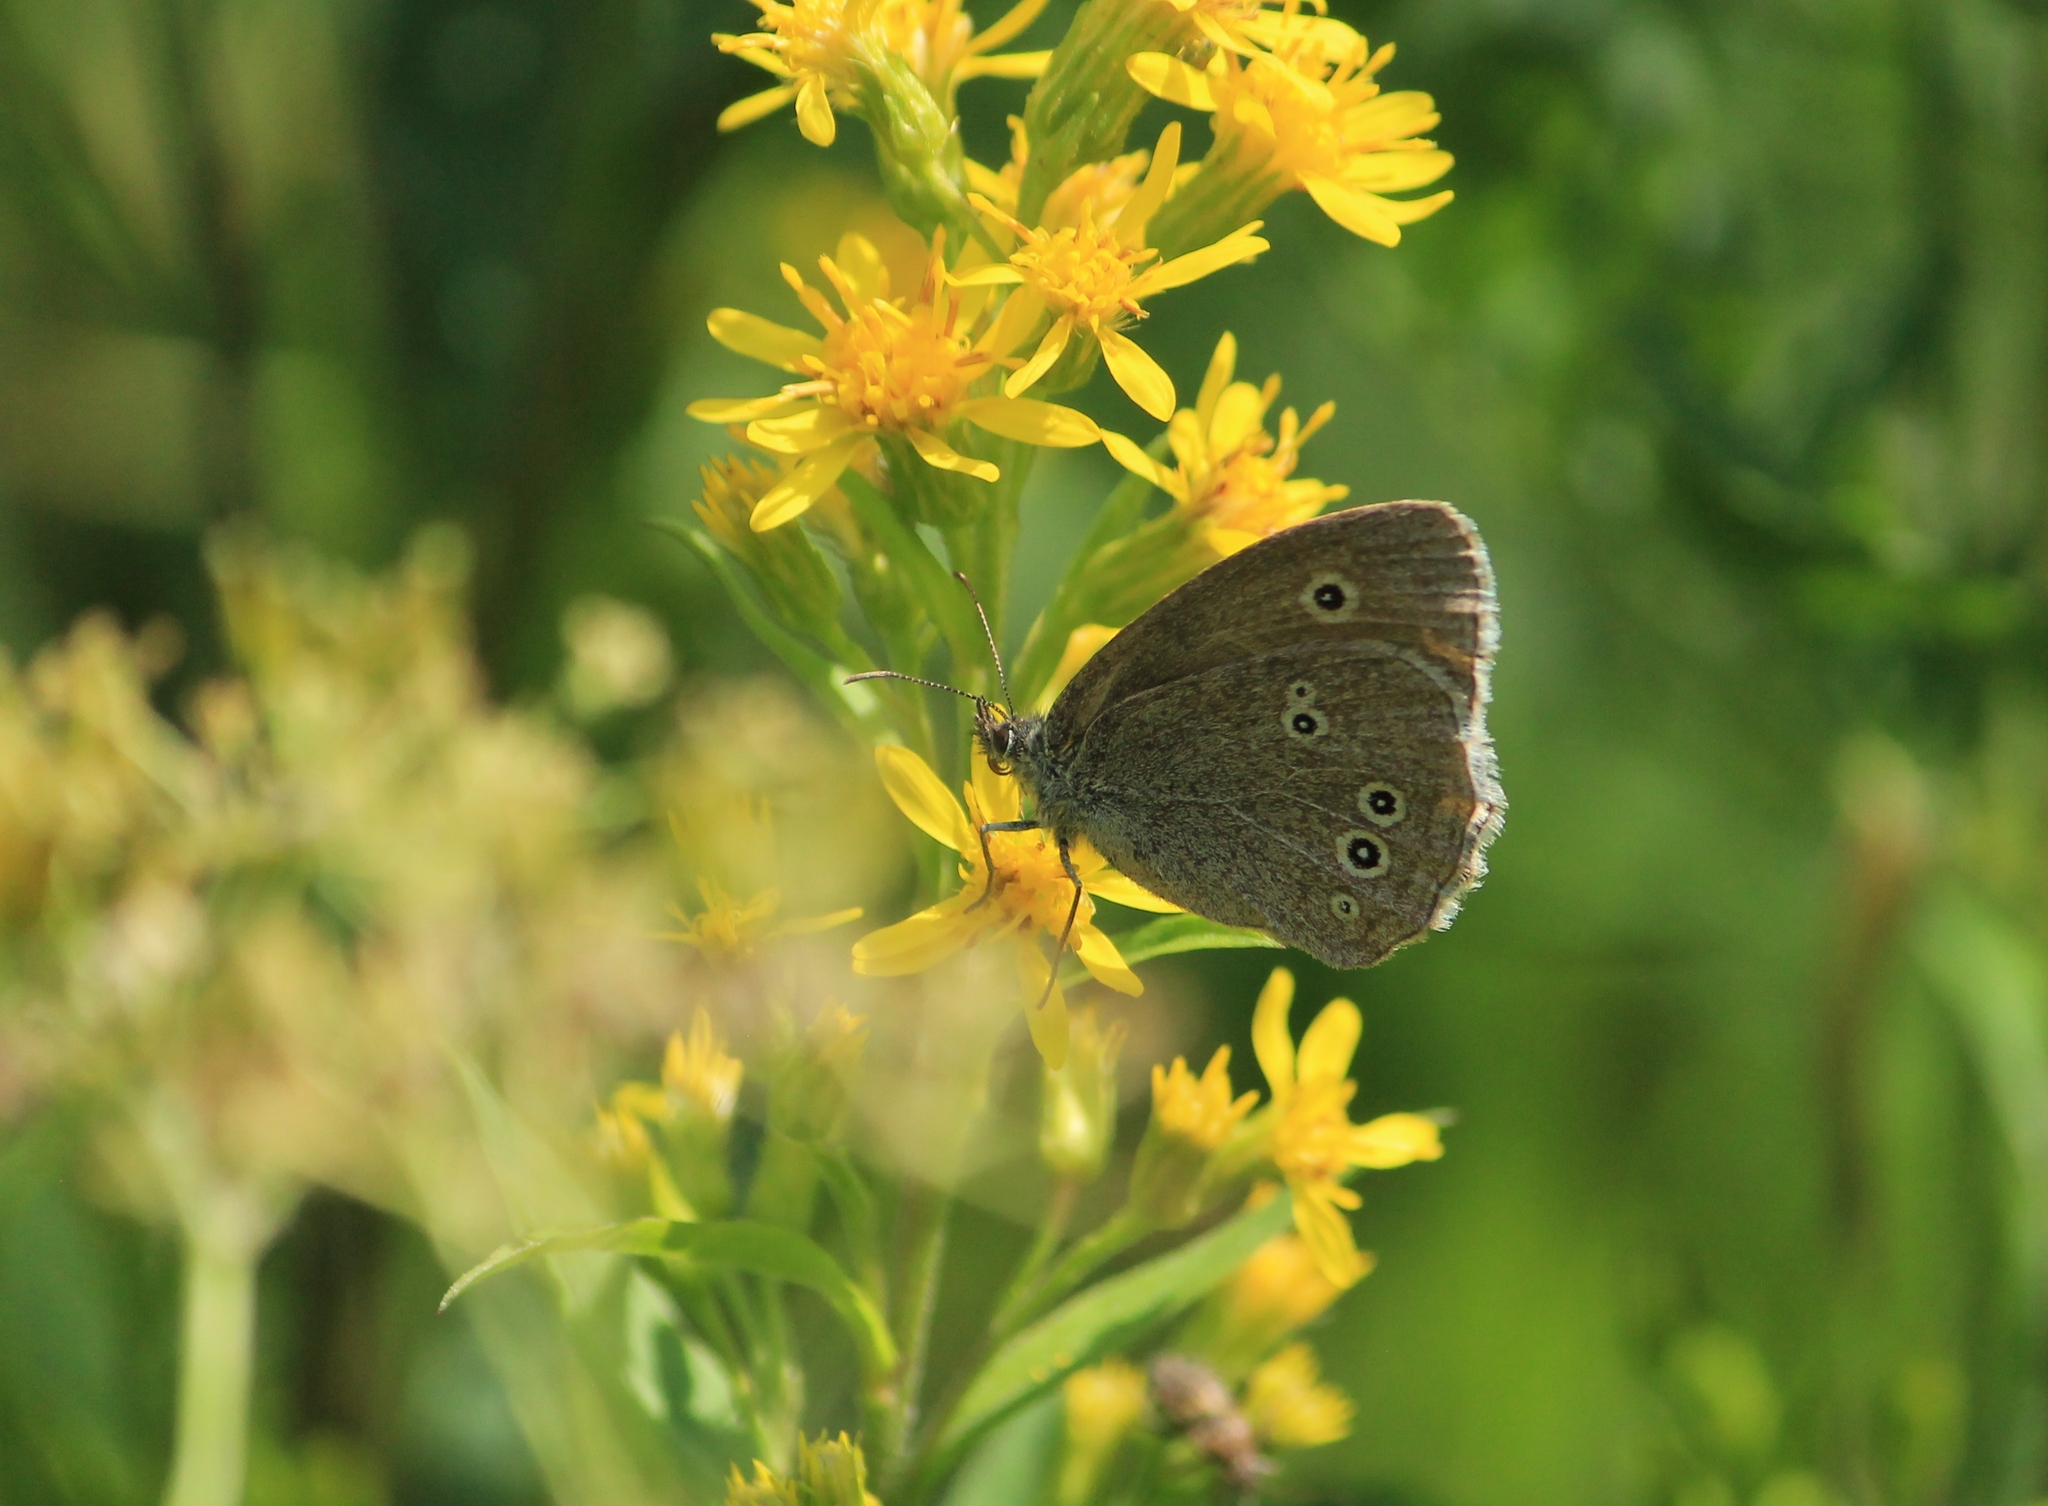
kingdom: Animalia
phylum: Arthropoda
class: Insecta
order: Lepidoptera
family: Nymphalidae
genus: Aphantopus
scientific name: Aphantopus hyperantus
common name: Ringlet
